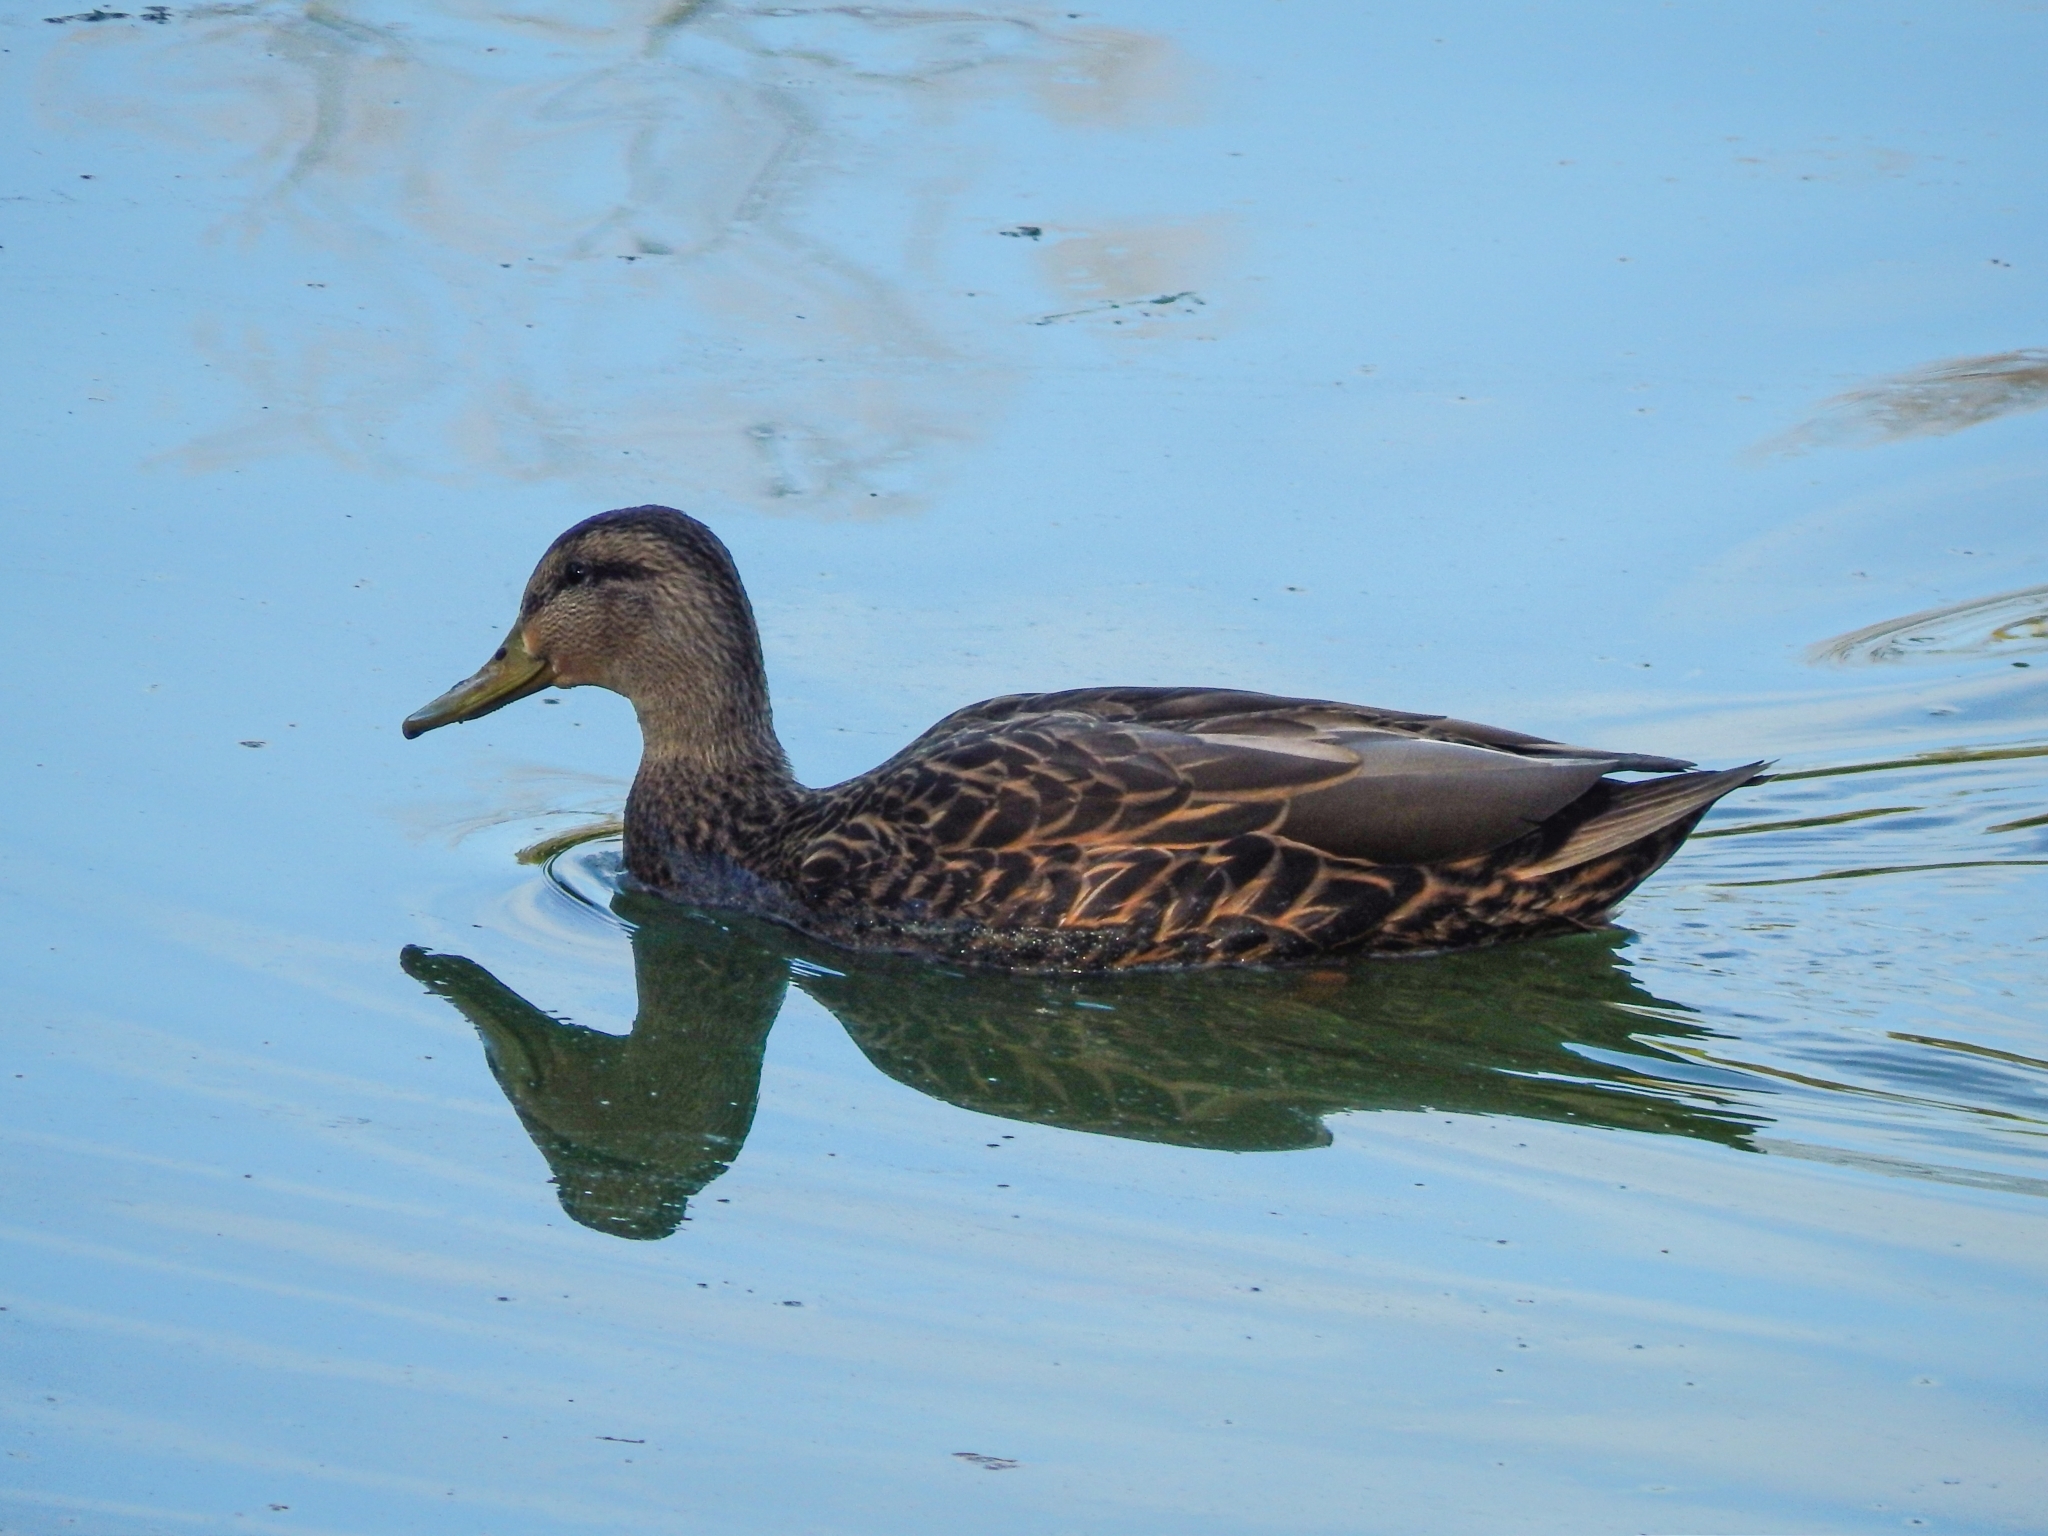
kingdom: Animalia
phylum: Chordata
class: Aves
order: Anseriformes
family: Anatidae
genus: Anas
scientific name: Anas diazi
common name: Mexican duck
